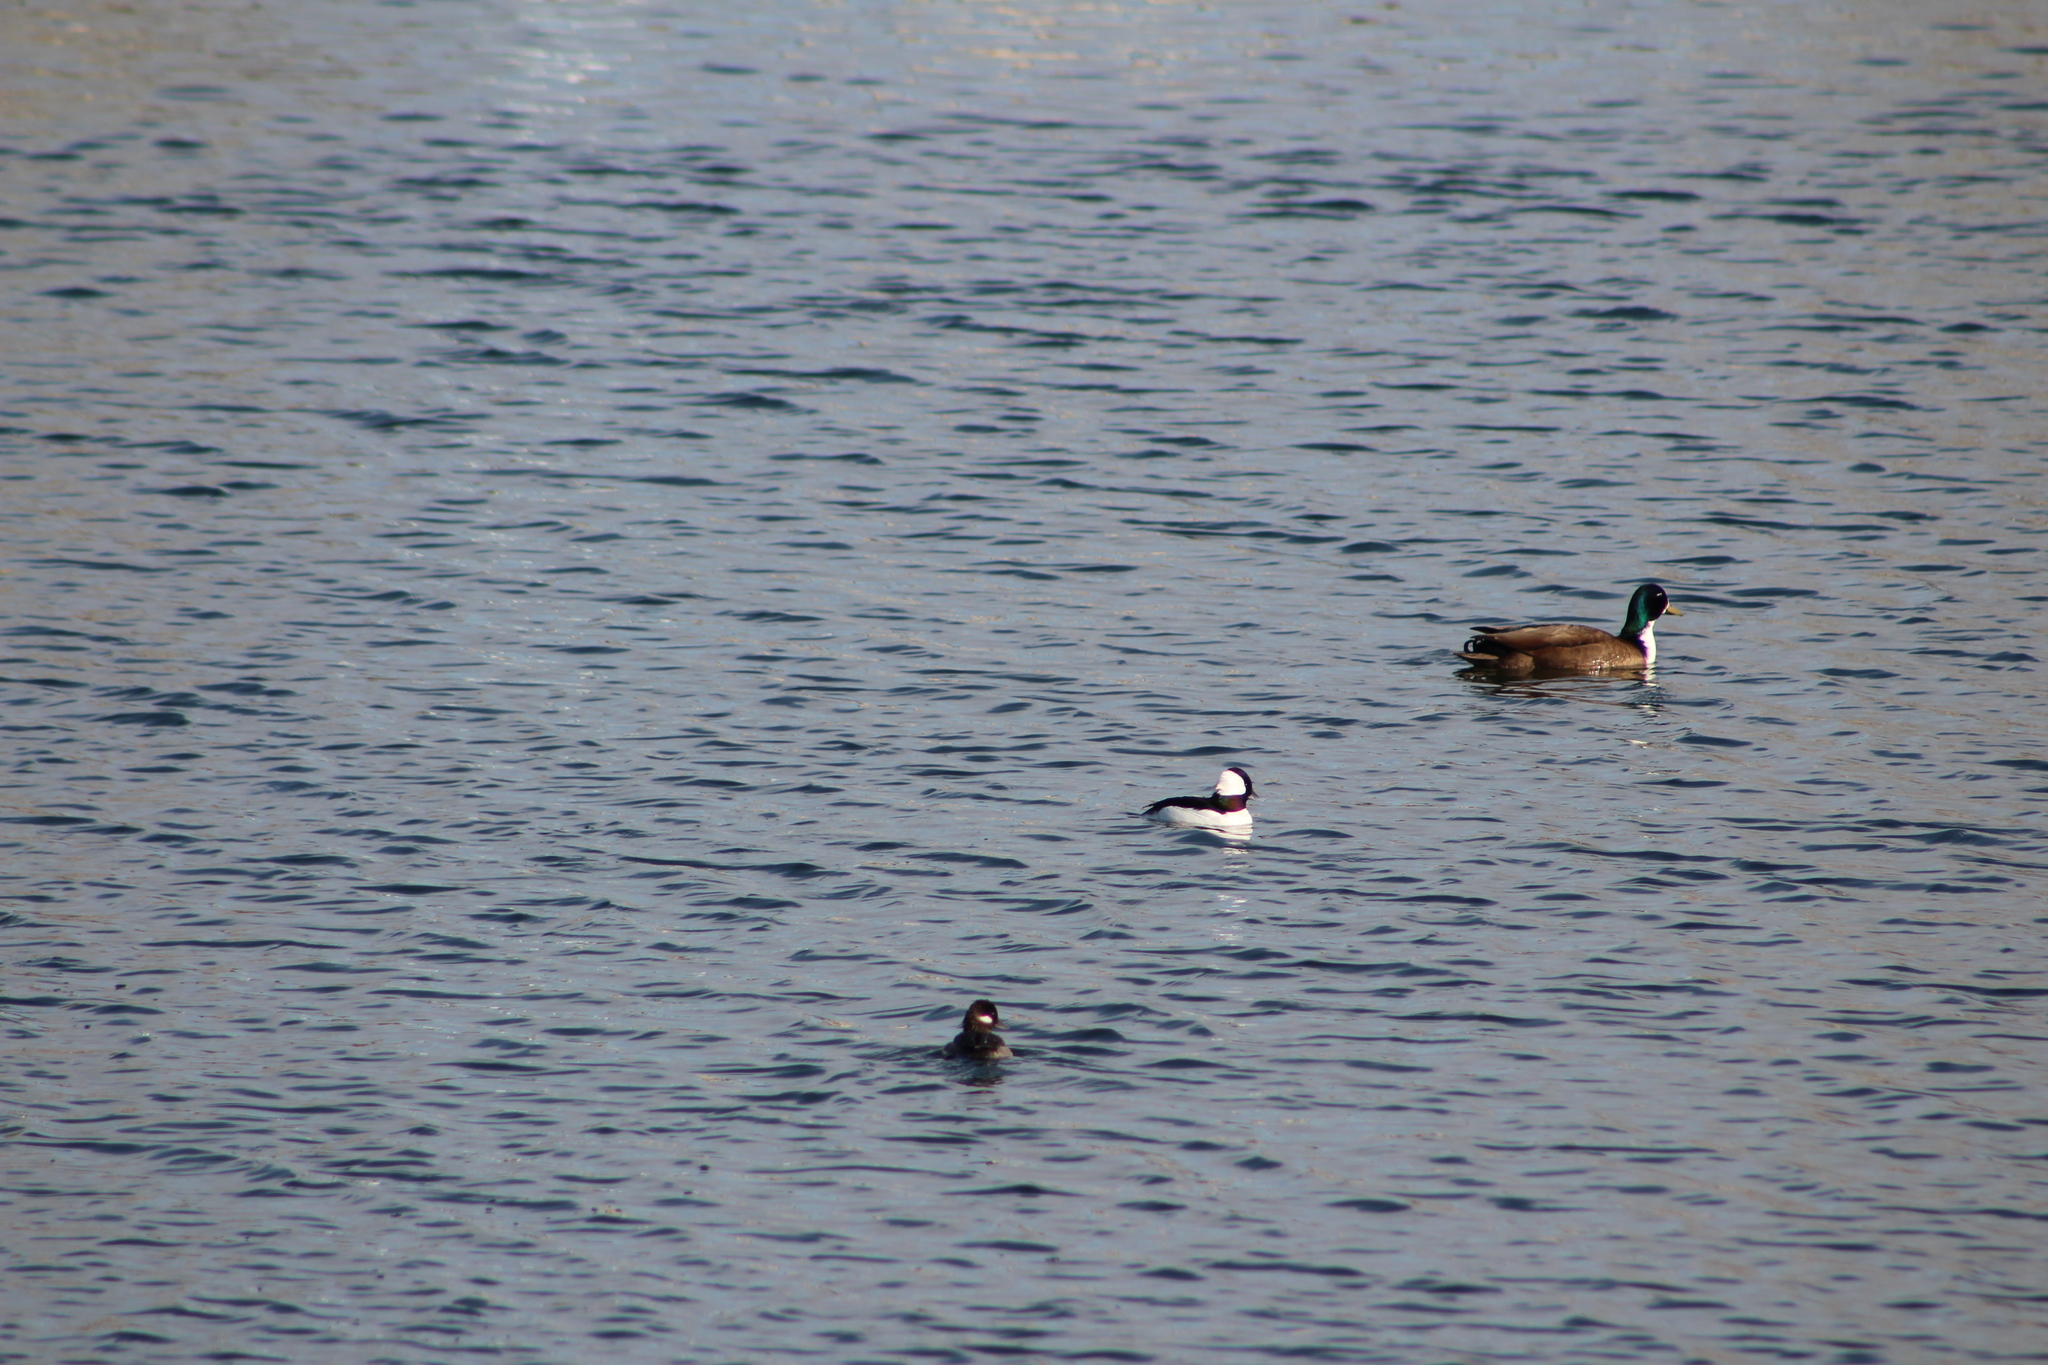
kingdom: Animalia
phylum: Chordata
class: Aves
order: Anseriformes
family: Anatidae
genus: Bucephala
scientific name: Bucephala albeola
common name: Bufflehead
